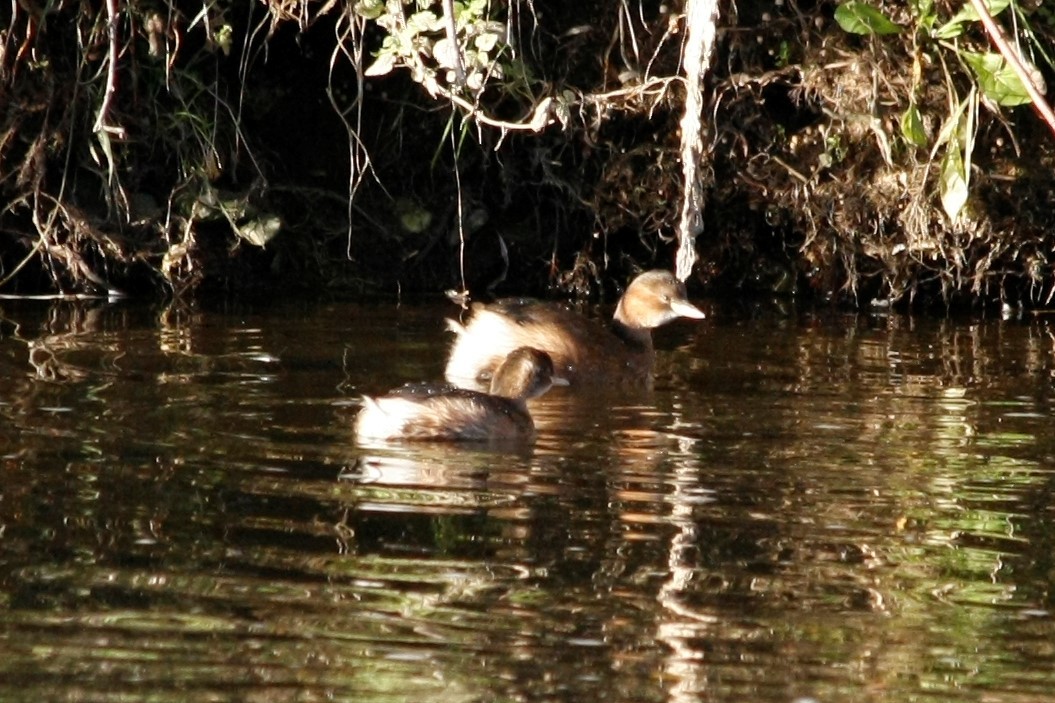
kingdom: Animalia
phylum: Chordata
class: Aves
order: Podicipediformes
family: Podicipedidae
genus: Tachybaptus
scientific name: Tachybaptus ruficollis
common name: Little grebe
